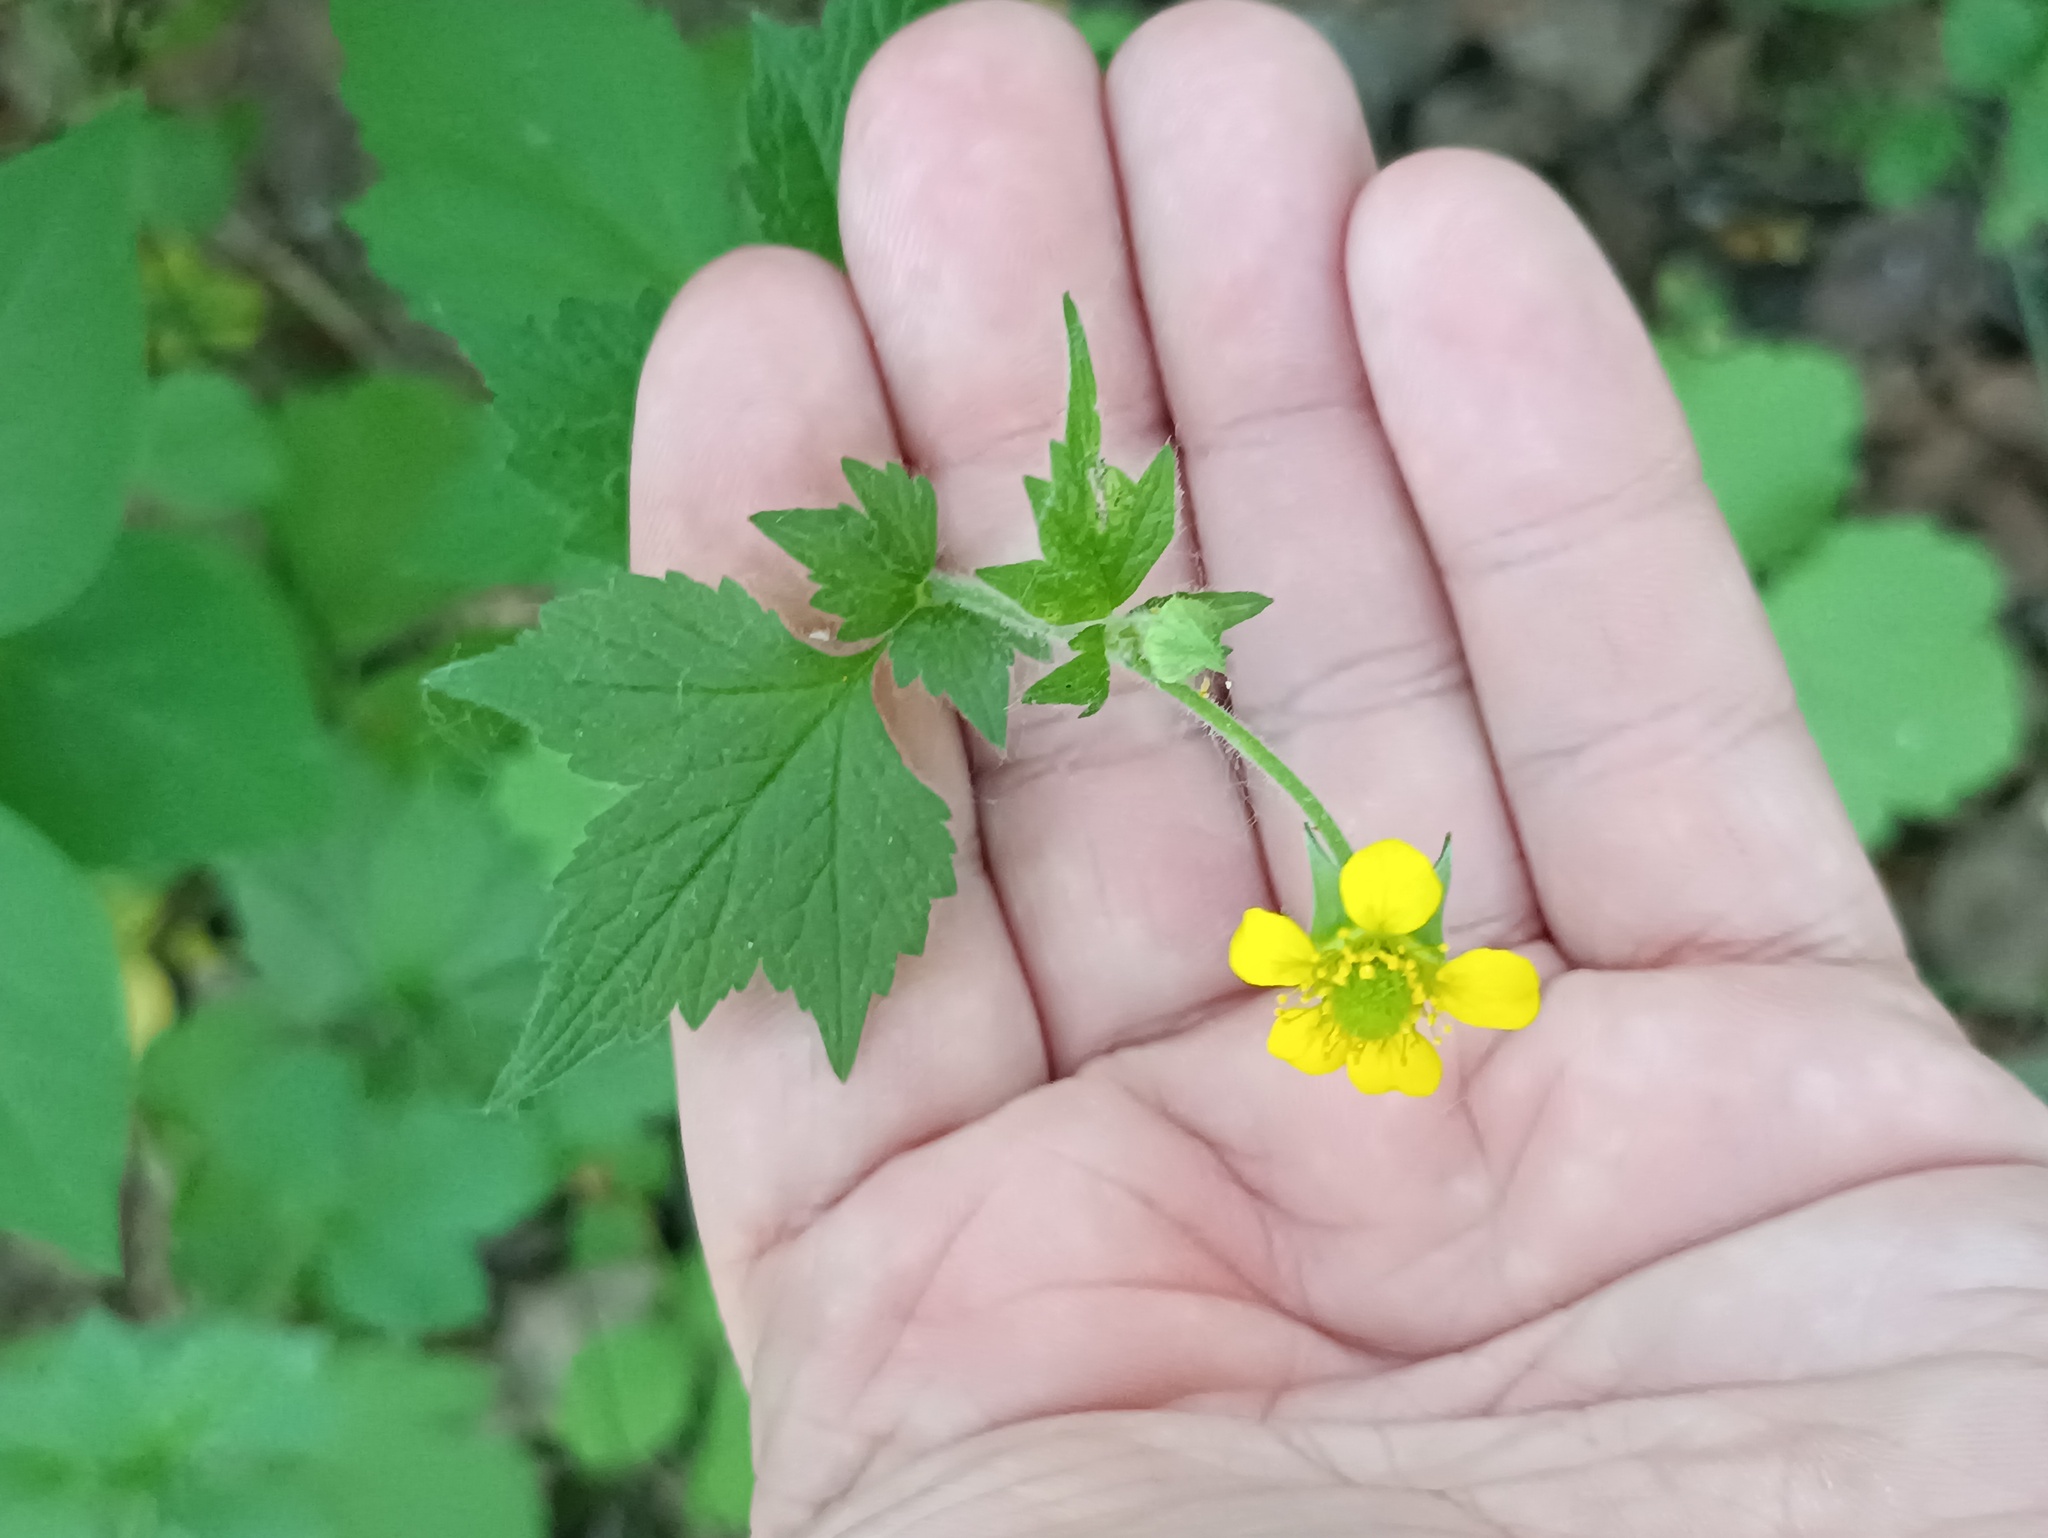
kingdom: Plantae
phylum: Tracheophyta
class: Magnoliopsida
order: Rosales
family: Rosaceae
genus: Geum
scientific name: Geum urbanum
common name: Wood avens
